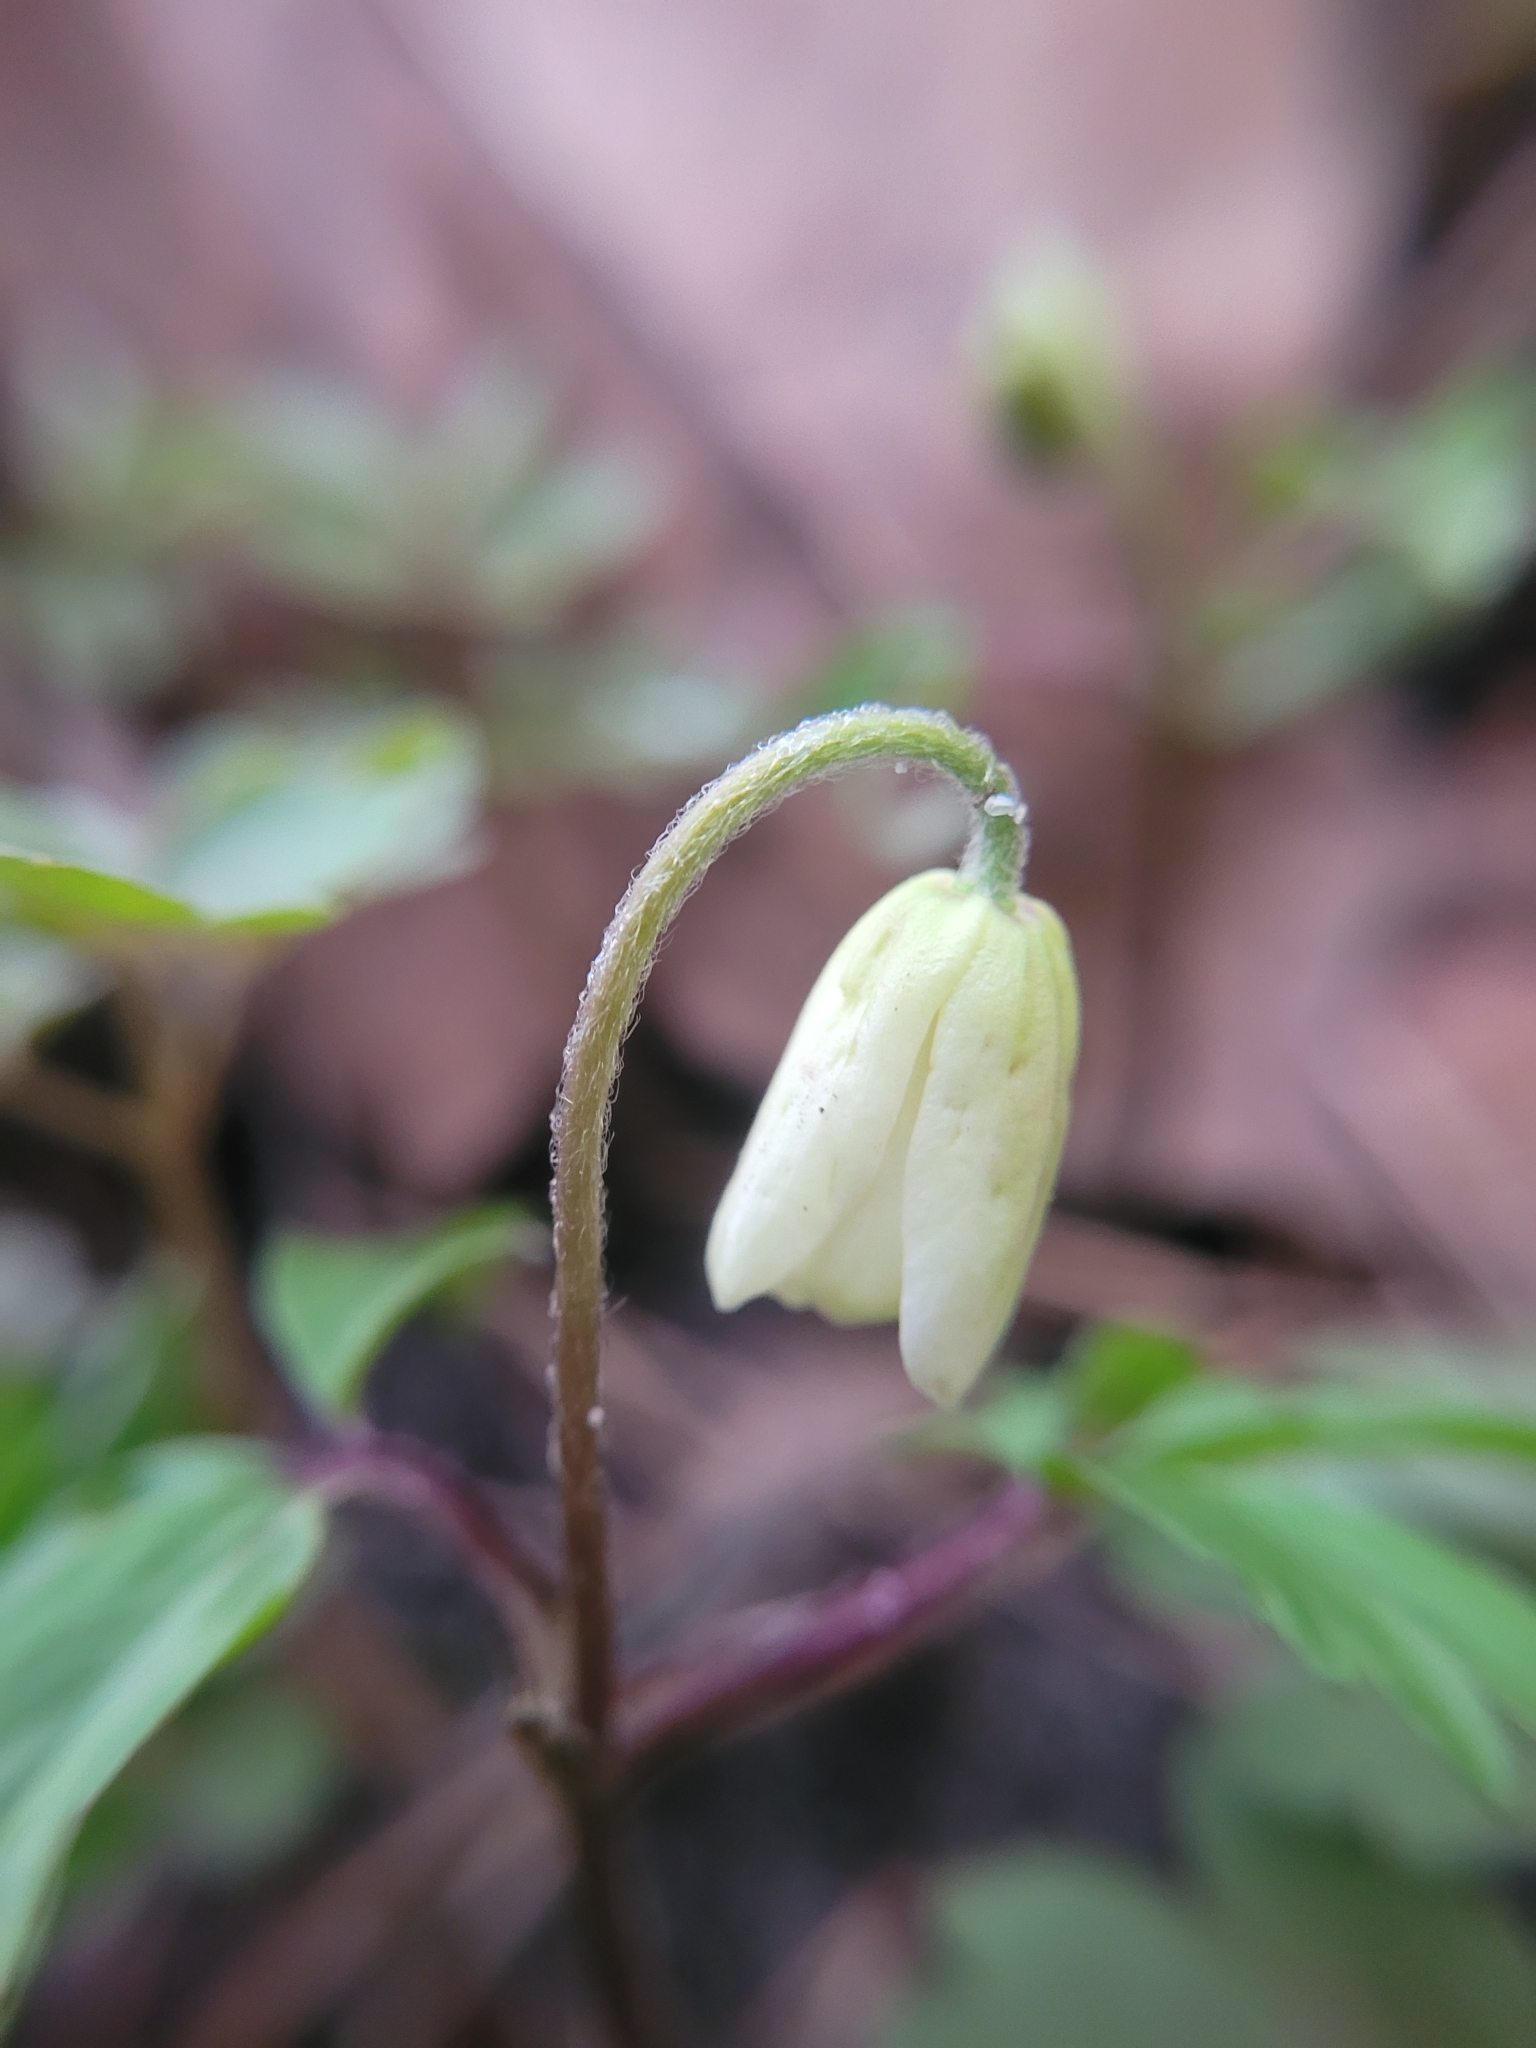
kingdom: Plantae
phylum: Tracheophyta
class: Magnoliopsida
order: Ranunculales
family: Ranunculaceae
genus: Anemone
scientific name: Anemone nemorosa
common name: Wood anemone
